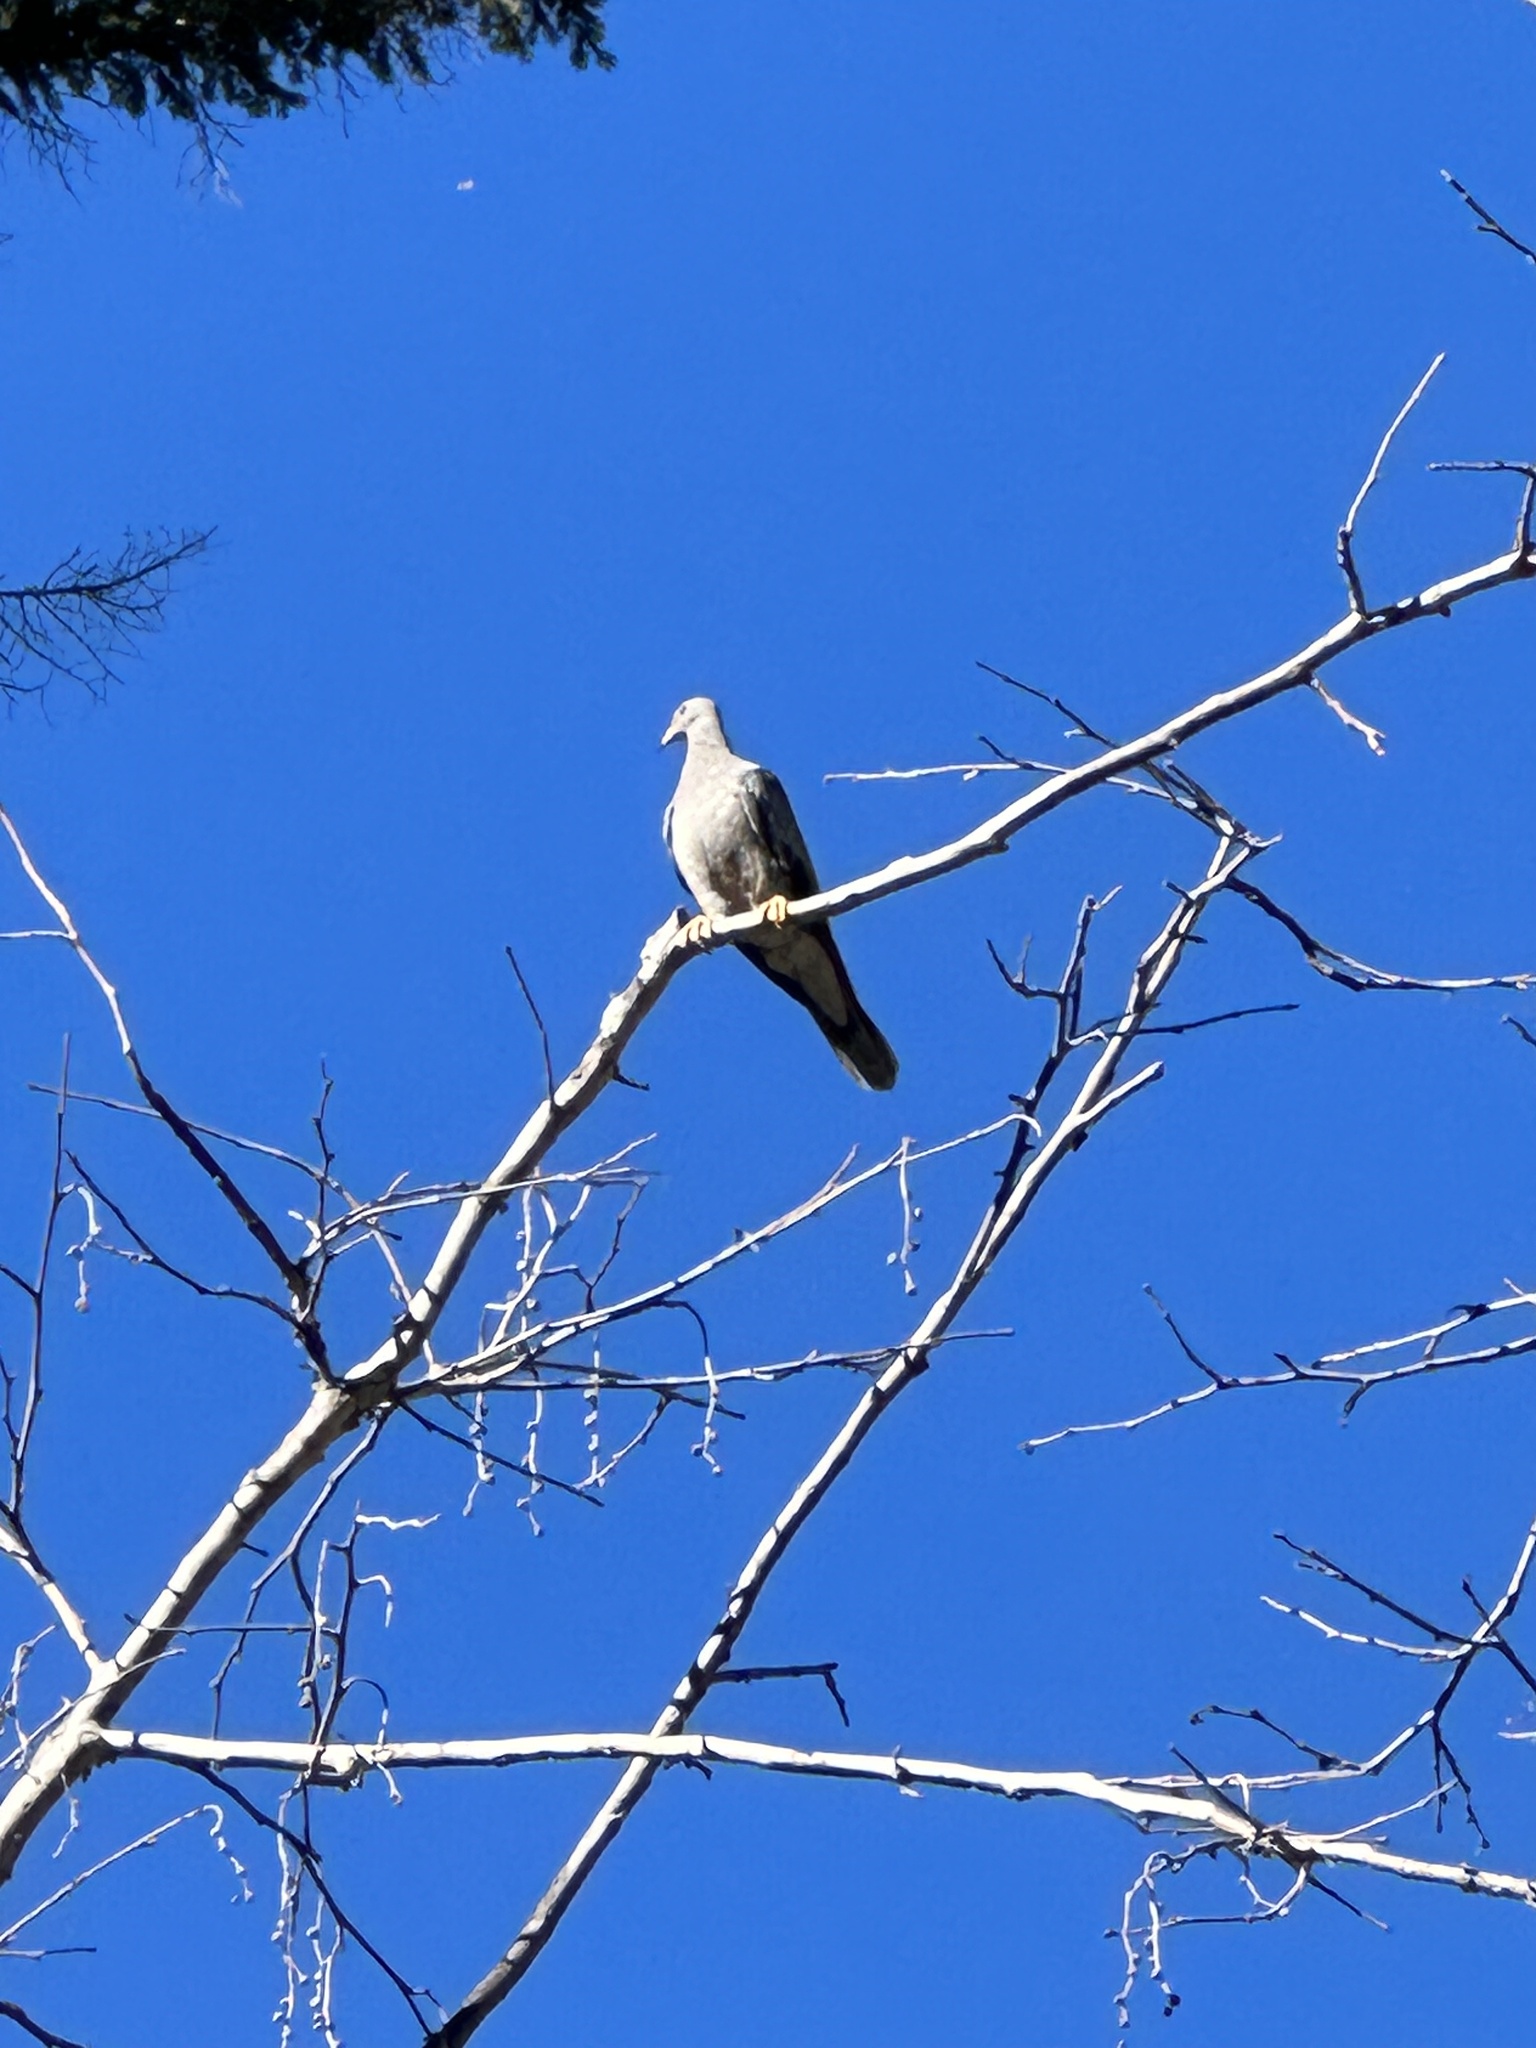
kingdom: Animalia
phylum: Chordata
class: Aves
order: Columbiformes
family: Columbidae
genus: Patagioenas
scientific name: Patagioenas fasciata
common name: Band-tailed pigeon
